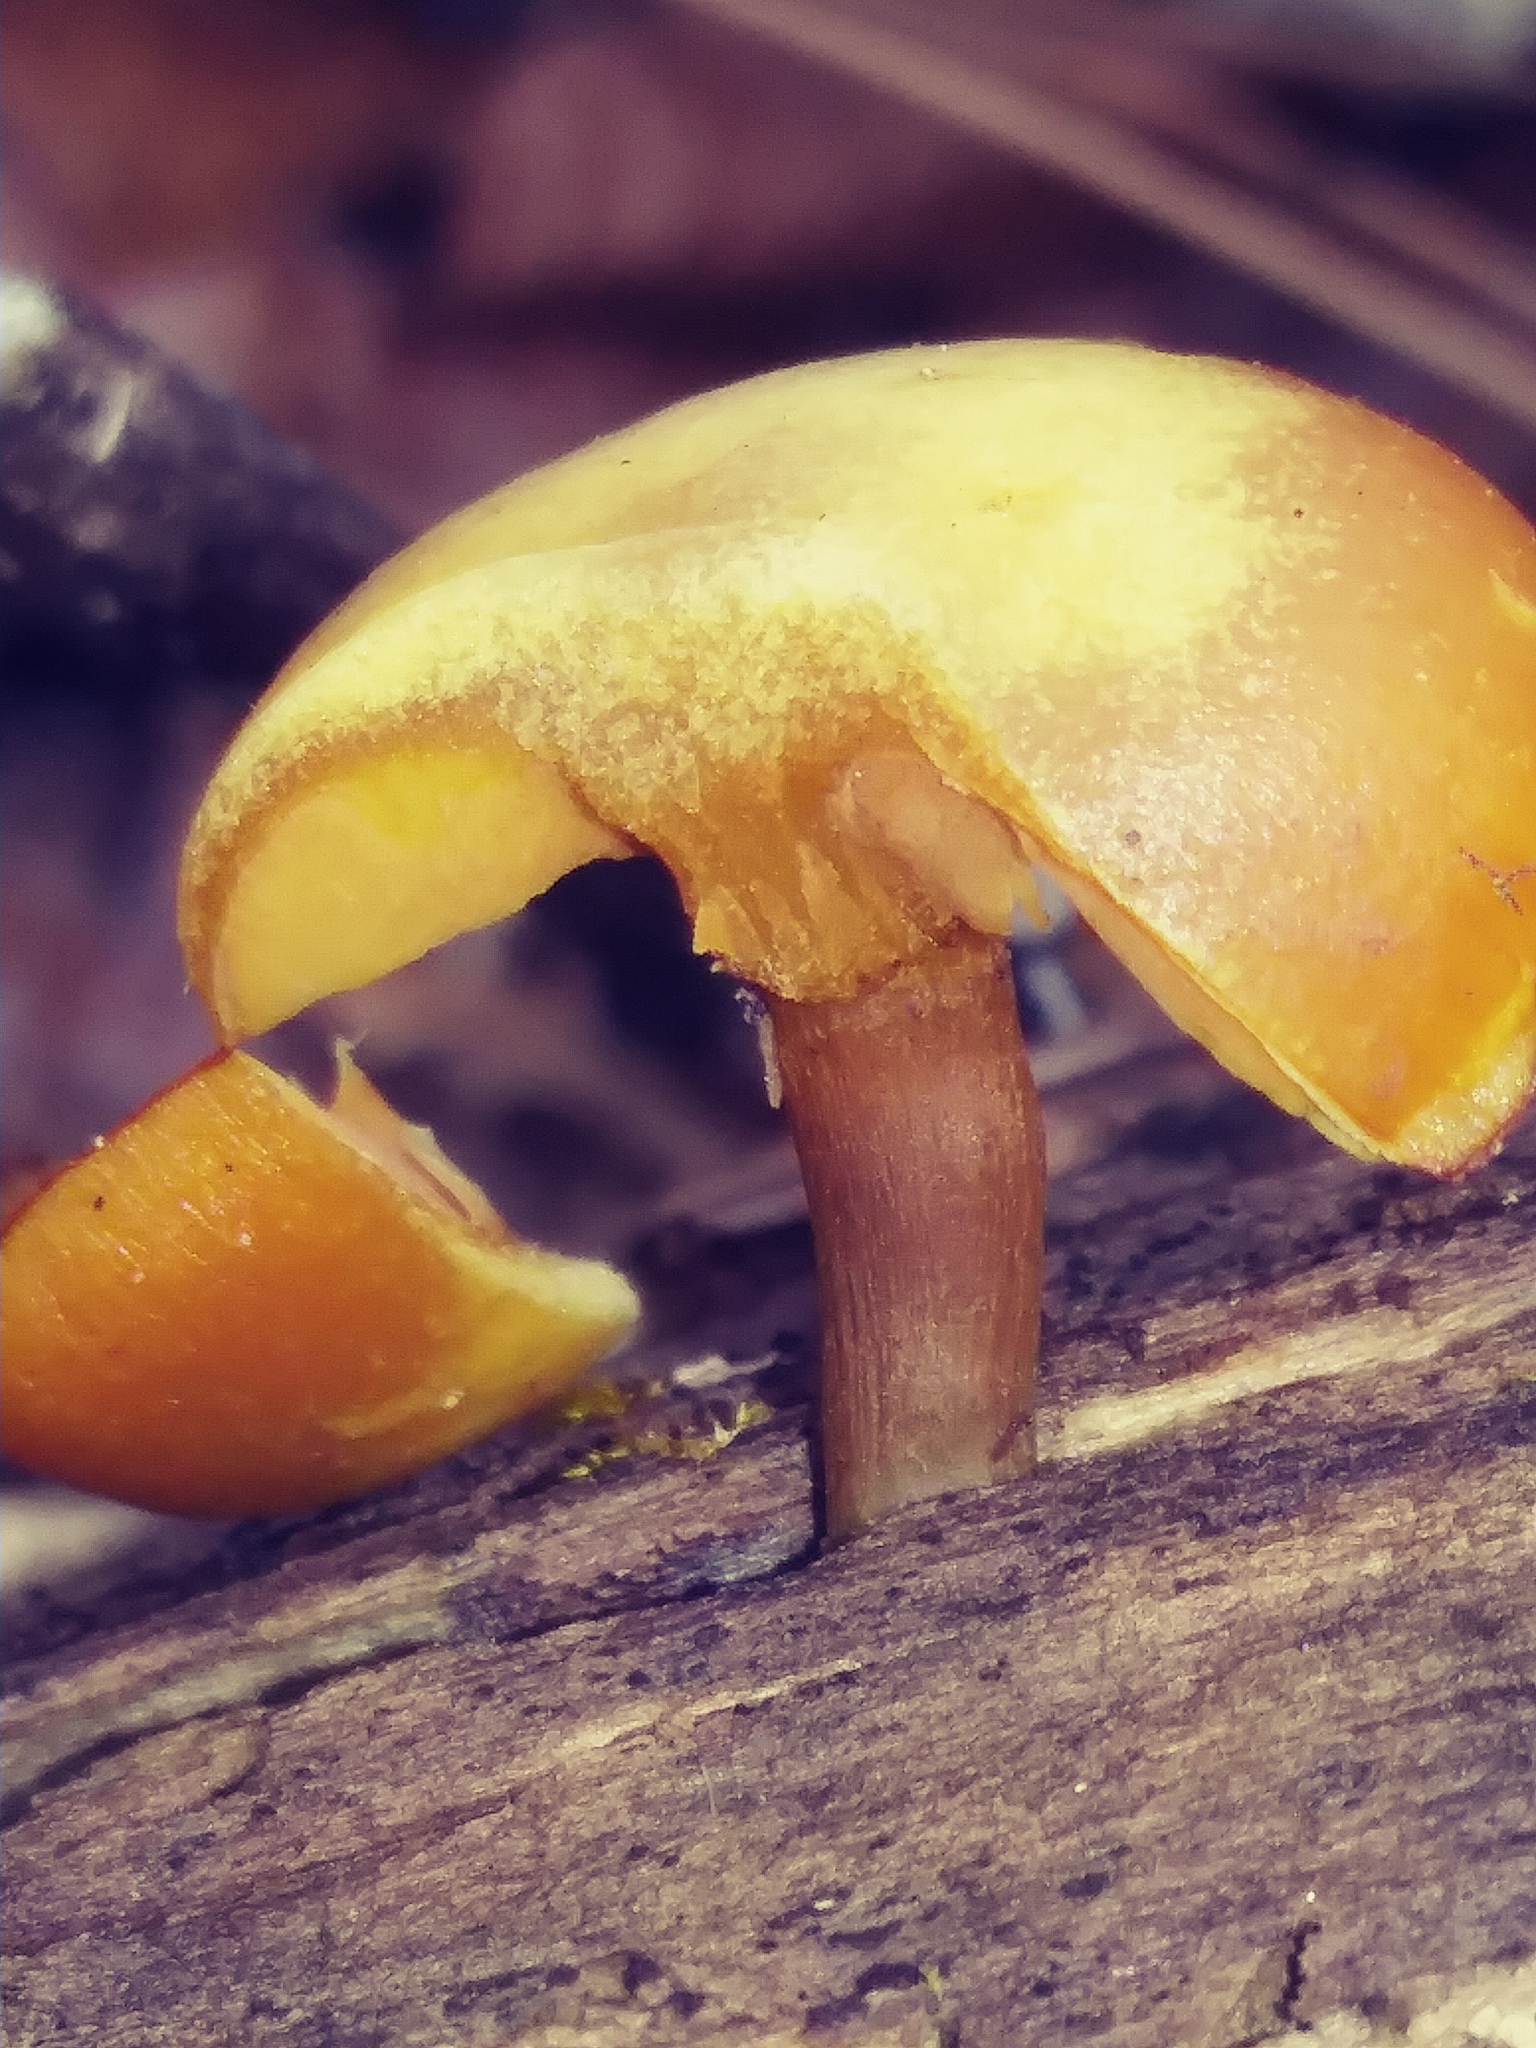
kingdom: Fungi
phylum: Basidiomycota
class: Agaricomycetes
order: Agaricales
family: Hymenogastraceae
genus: Galerina
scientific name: Galerina marginata
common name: Funeral bell
